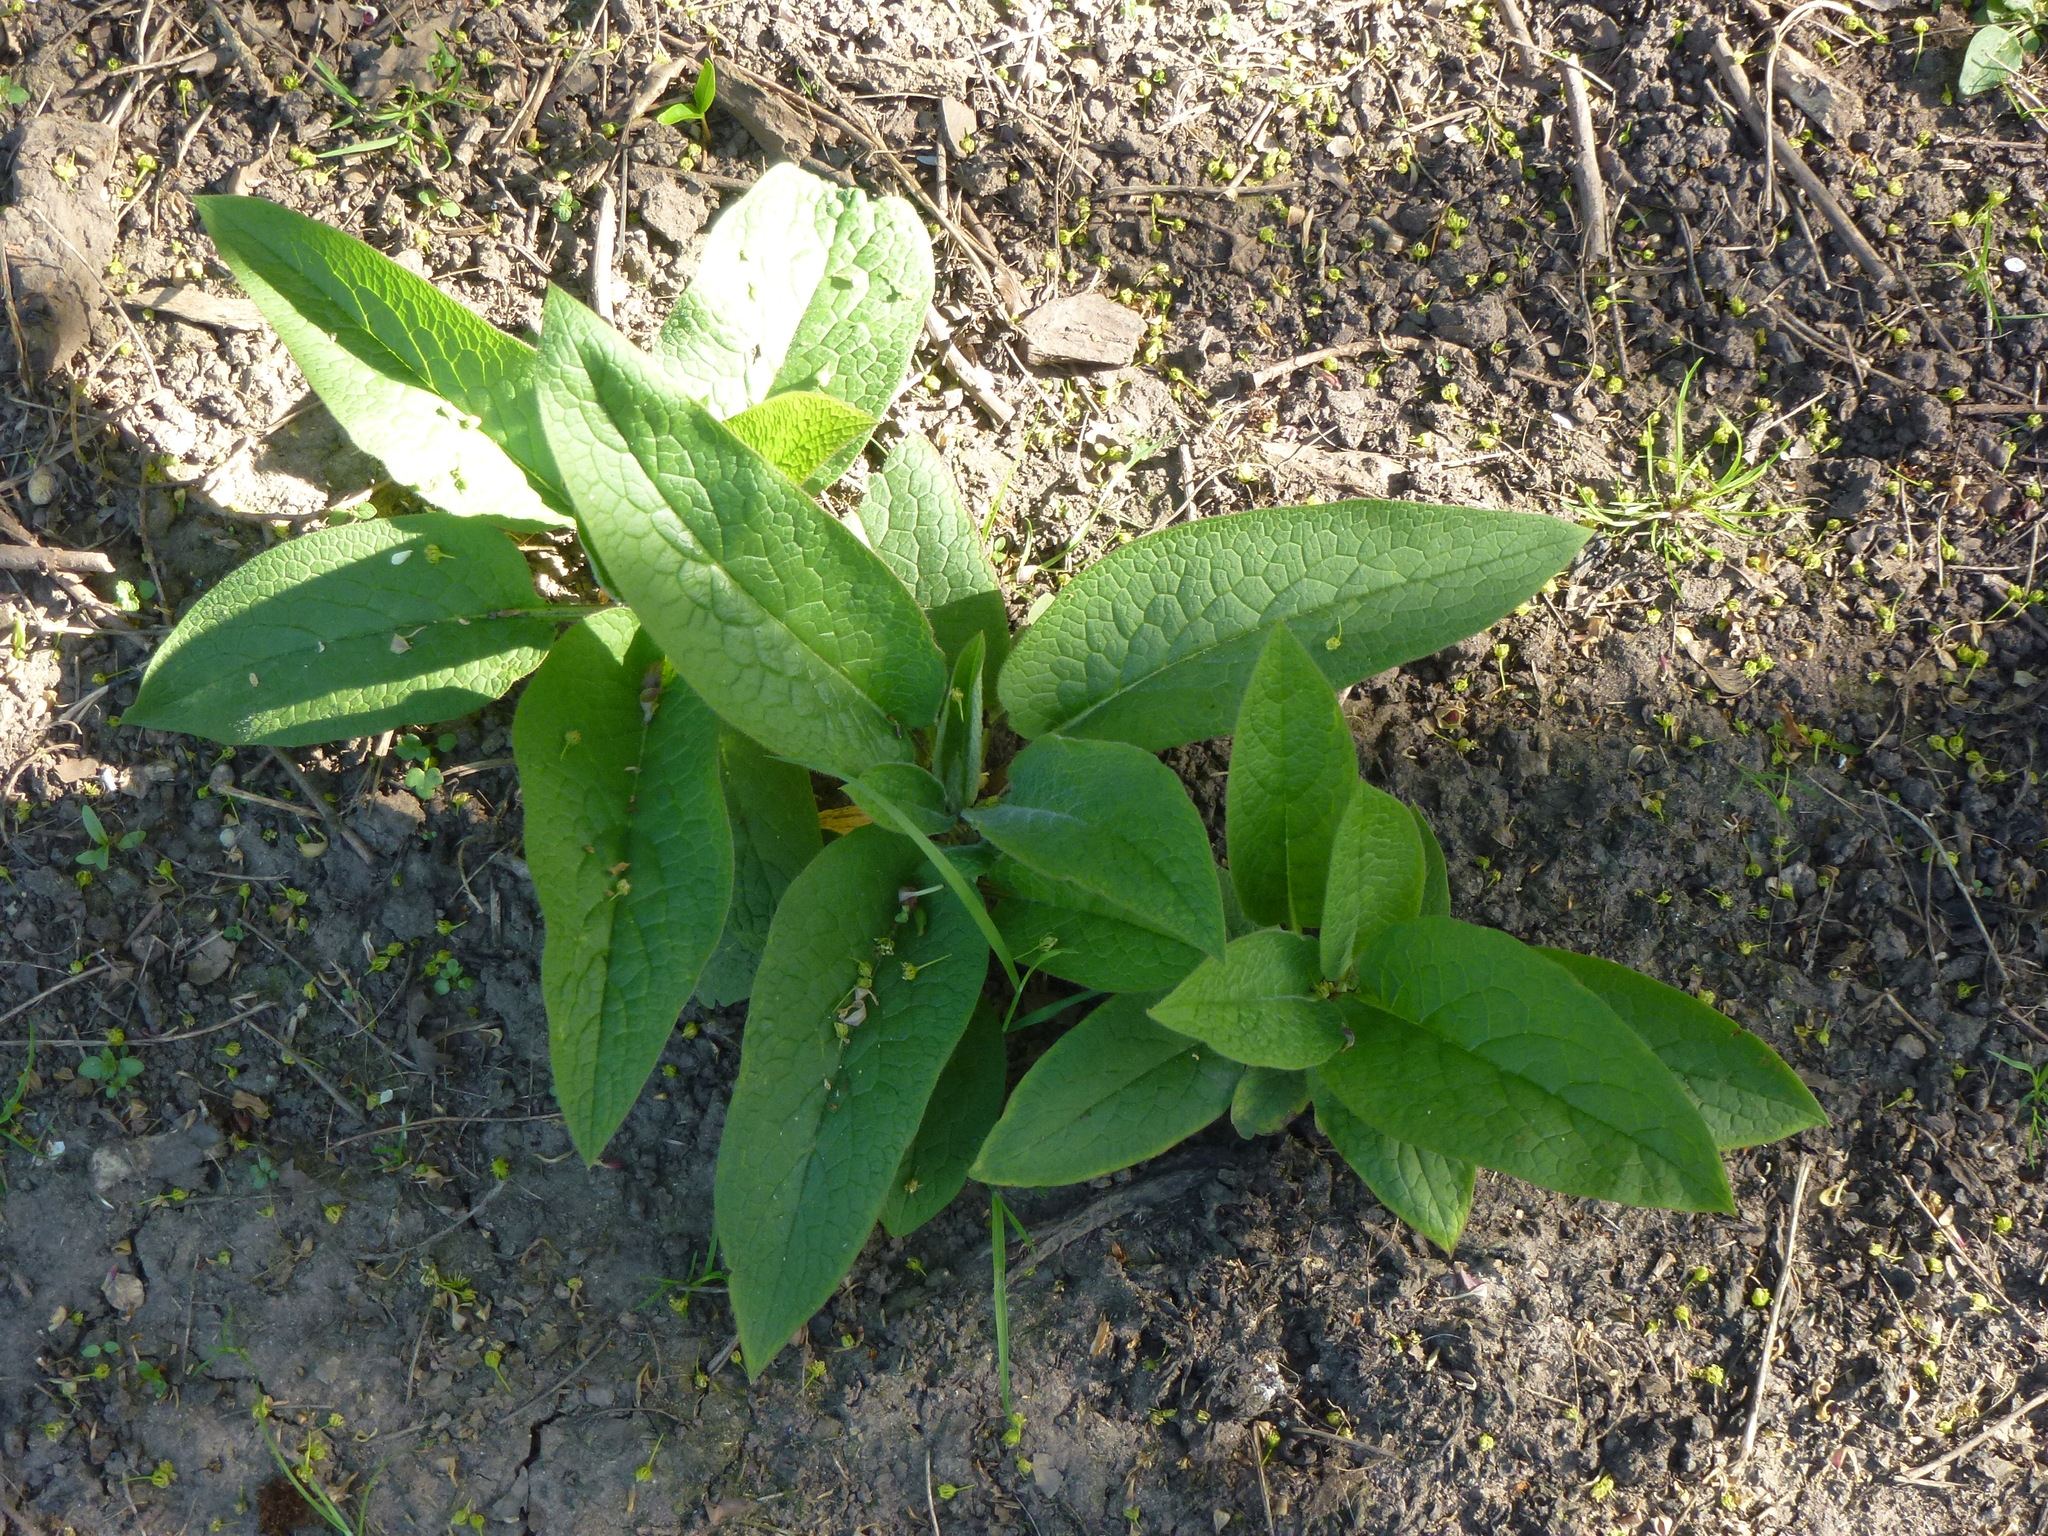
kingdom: Plantae
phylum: Tracheophyta
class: Magnoliopsida
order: Boraginales
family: Boraginaceae
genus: Symphytum
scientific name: Symphytum officinale
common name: Common comfrey
